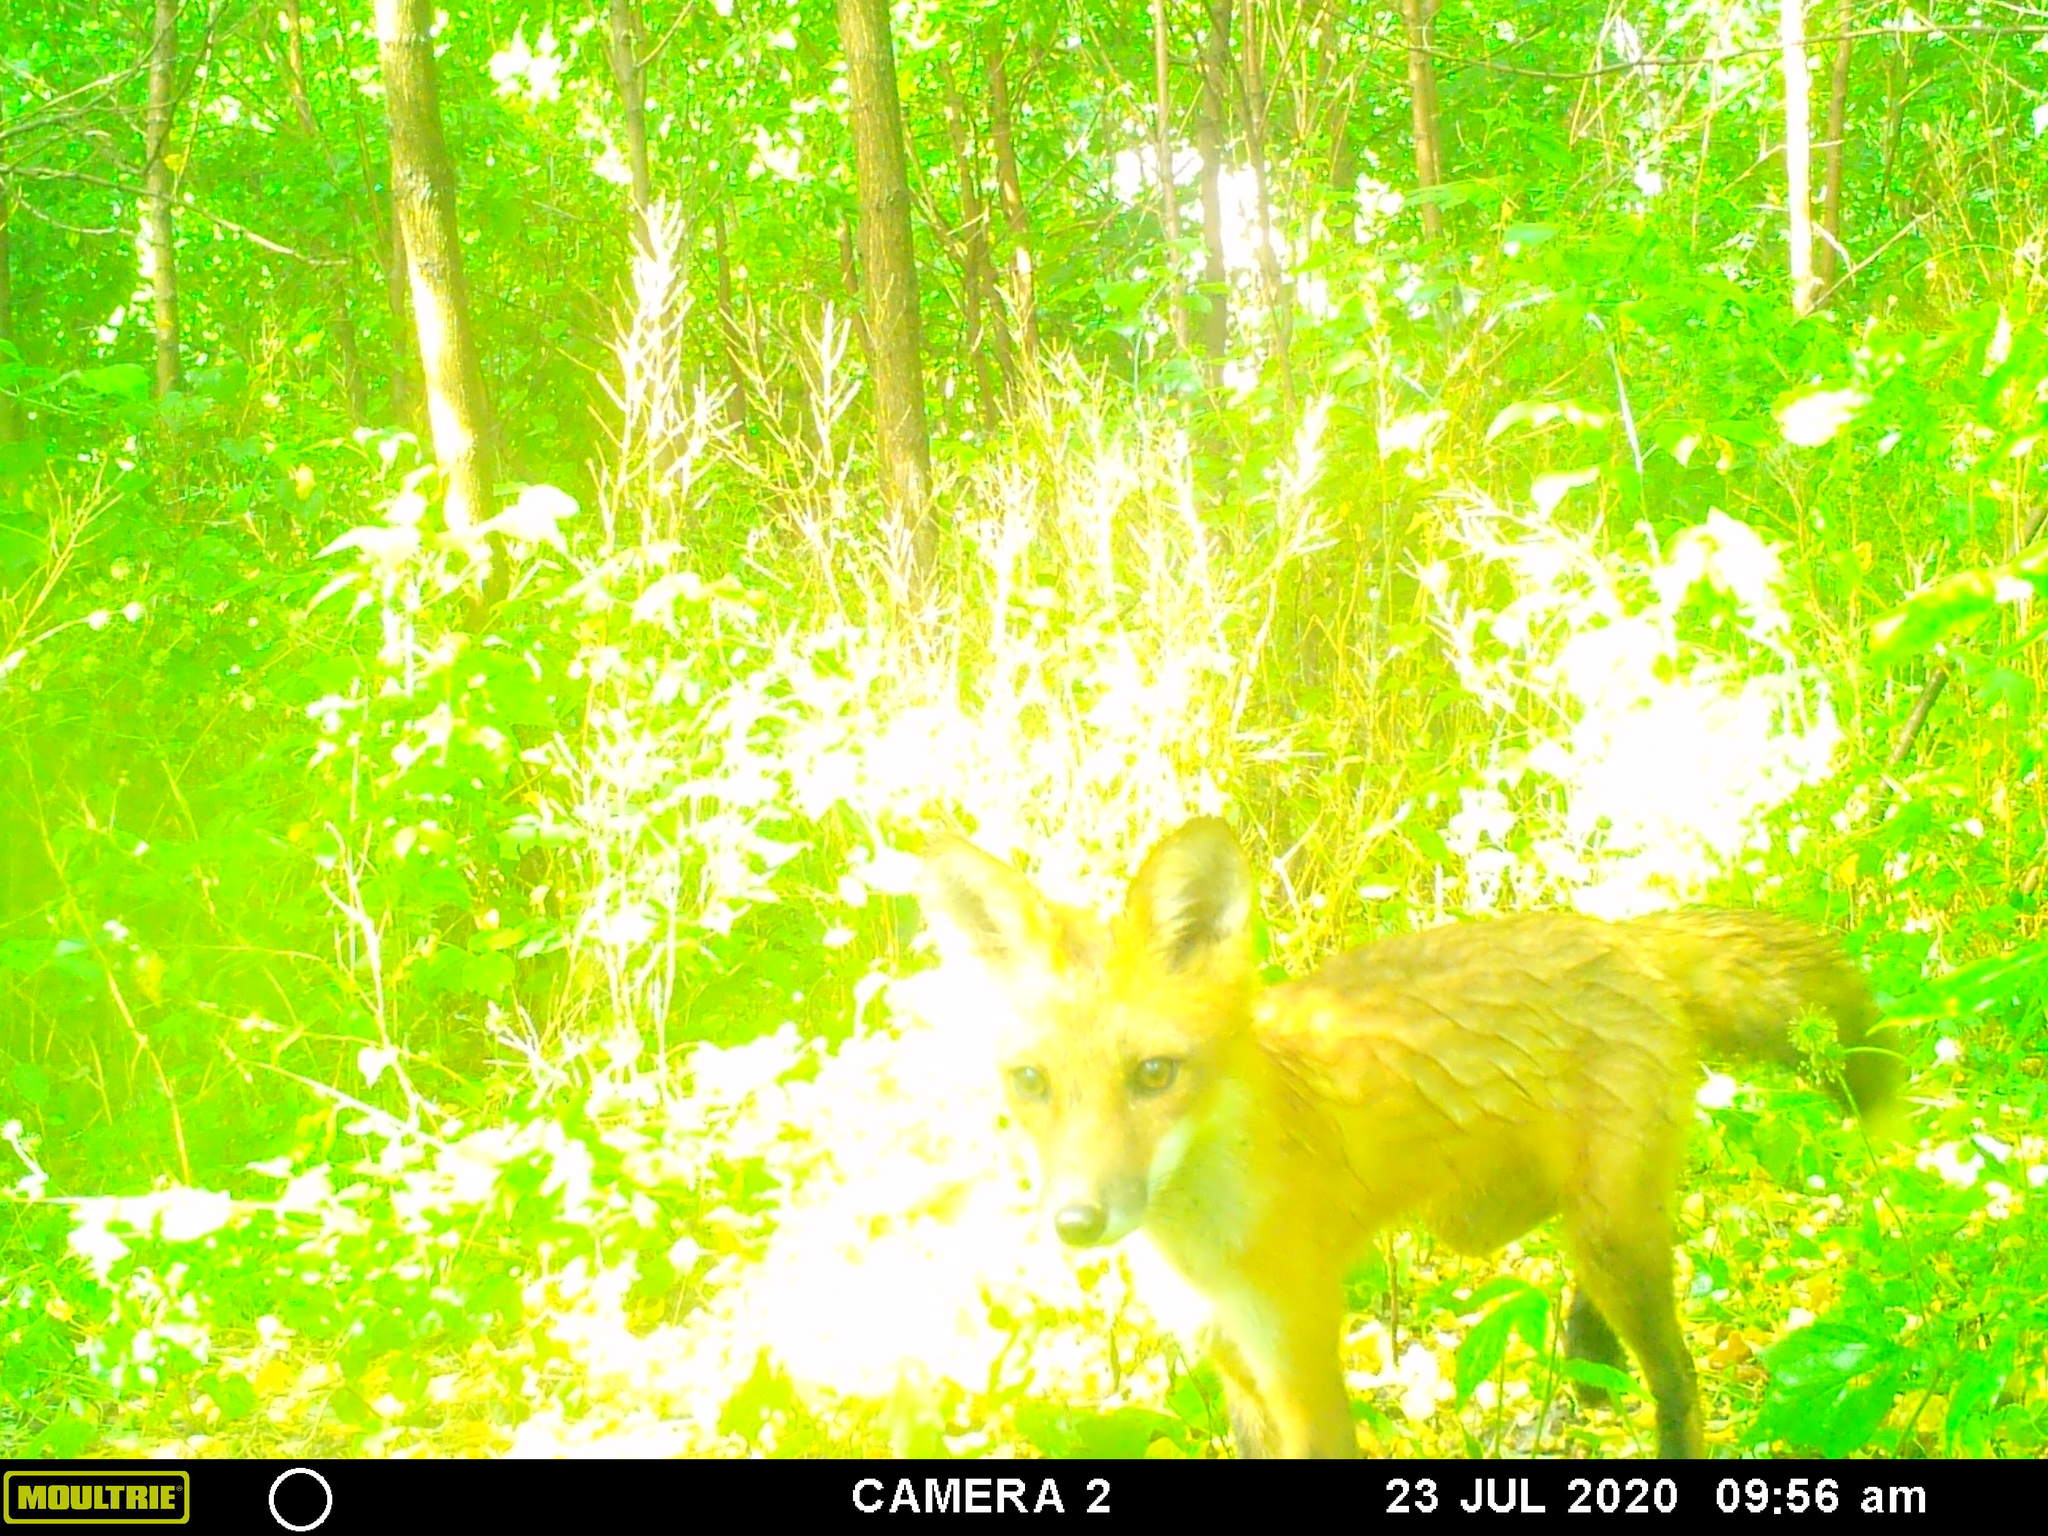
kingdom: Animalia
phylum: Chordata
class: Mammalia
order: Carnivora
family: Canidae
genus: Vulpes
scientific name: Vulpes vulpes
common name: Red fox
